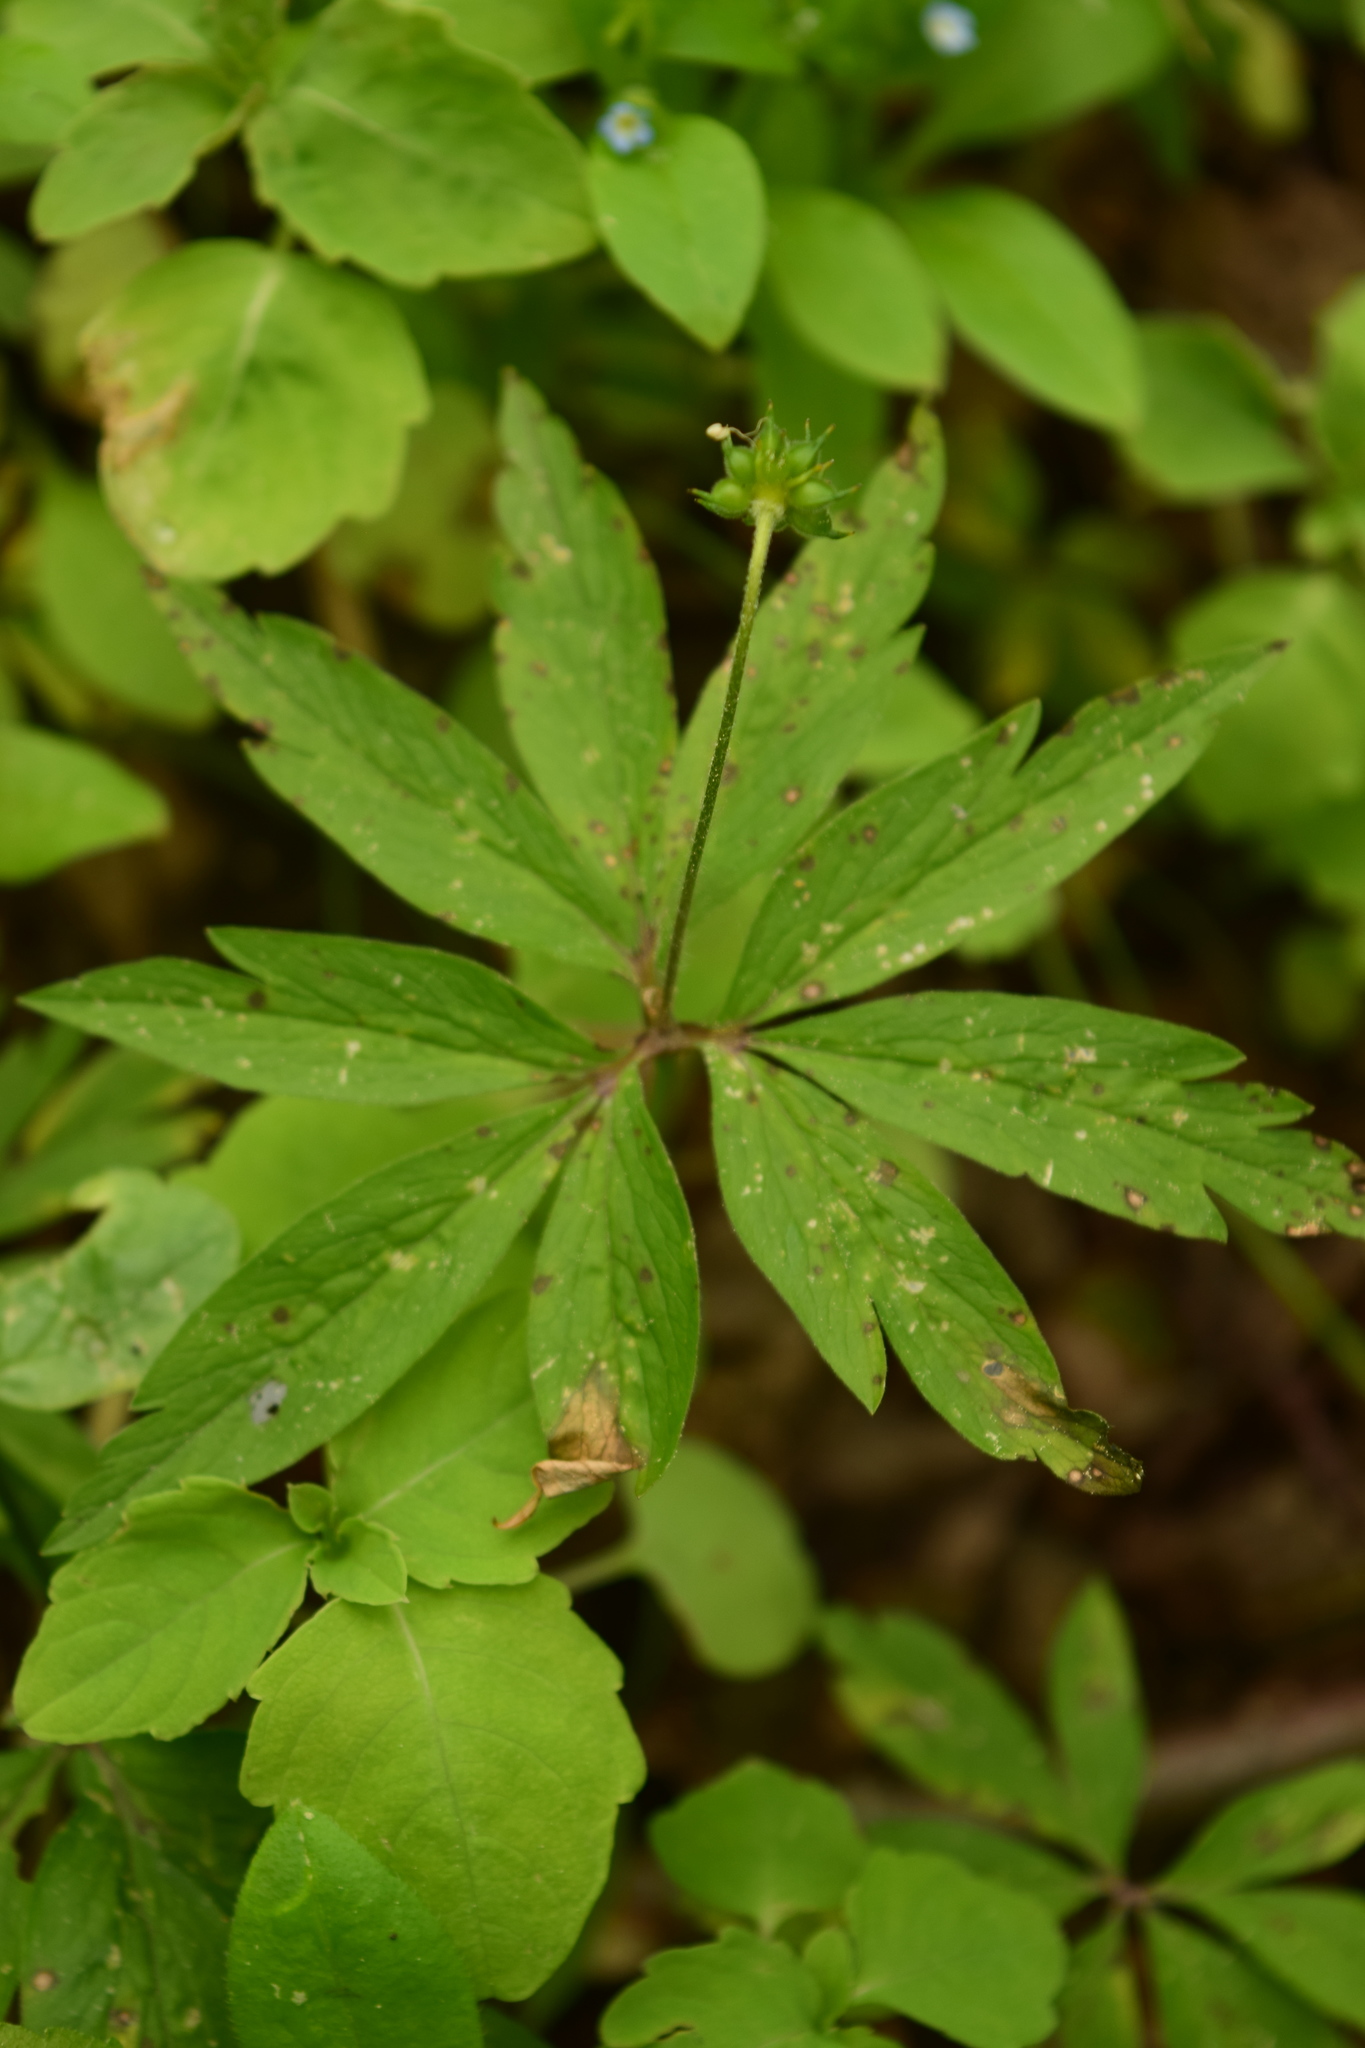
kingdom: Plantae
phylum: Tracheophyta
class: Magnoliopsida
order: Ranunculales
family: Ranunculaceae
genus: Anemone
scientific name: Anemone ranunculoides
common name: Yellow anemone
